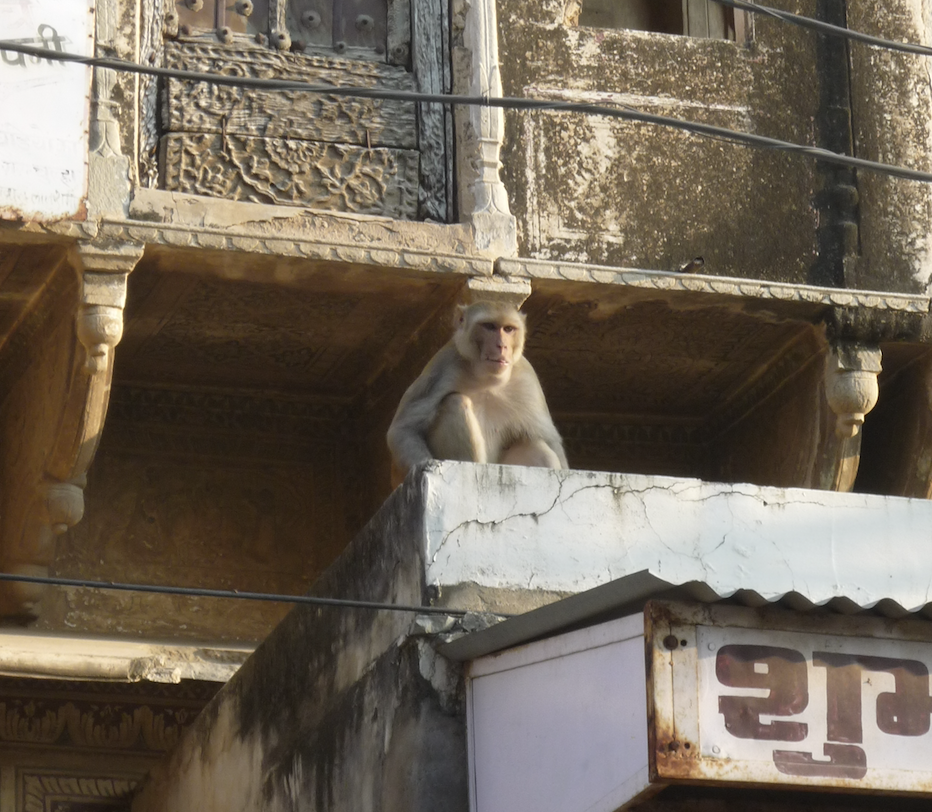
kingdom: Animalia
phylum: Chordata
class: Mammalia
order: Primates
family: Cercopithecidae
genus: Macaca
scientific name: Macaca mulatta
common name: Rhesus monkey
